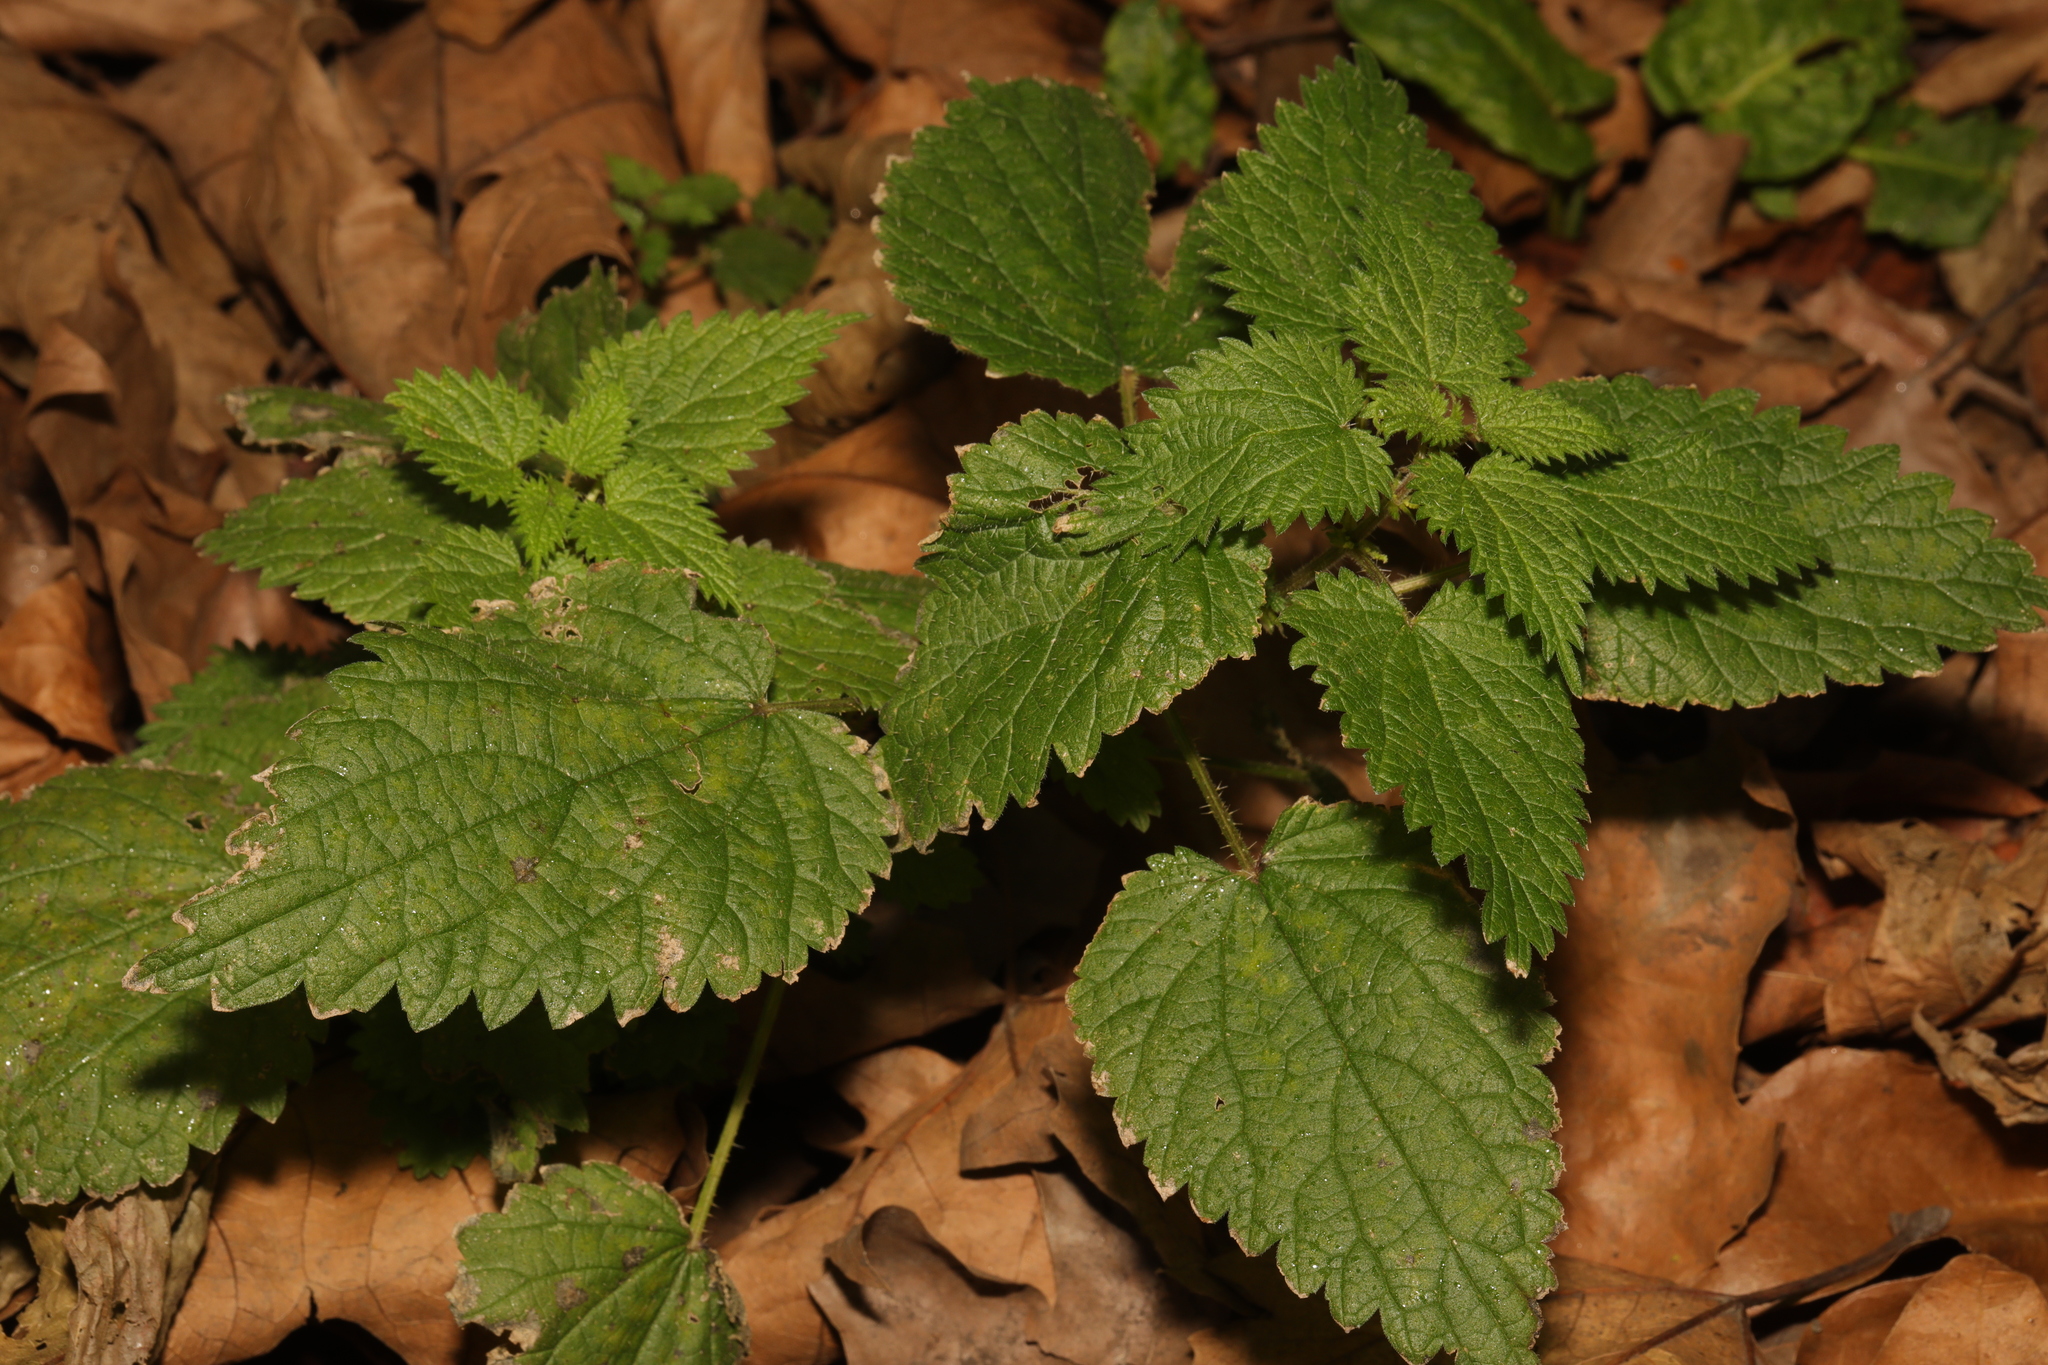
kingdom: Plantae
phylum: Tracheophyta
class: Magnoliopsida
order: Rosales
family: Urticaceae
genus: Urtica
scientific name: Urtica dioica
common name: Common nettle
